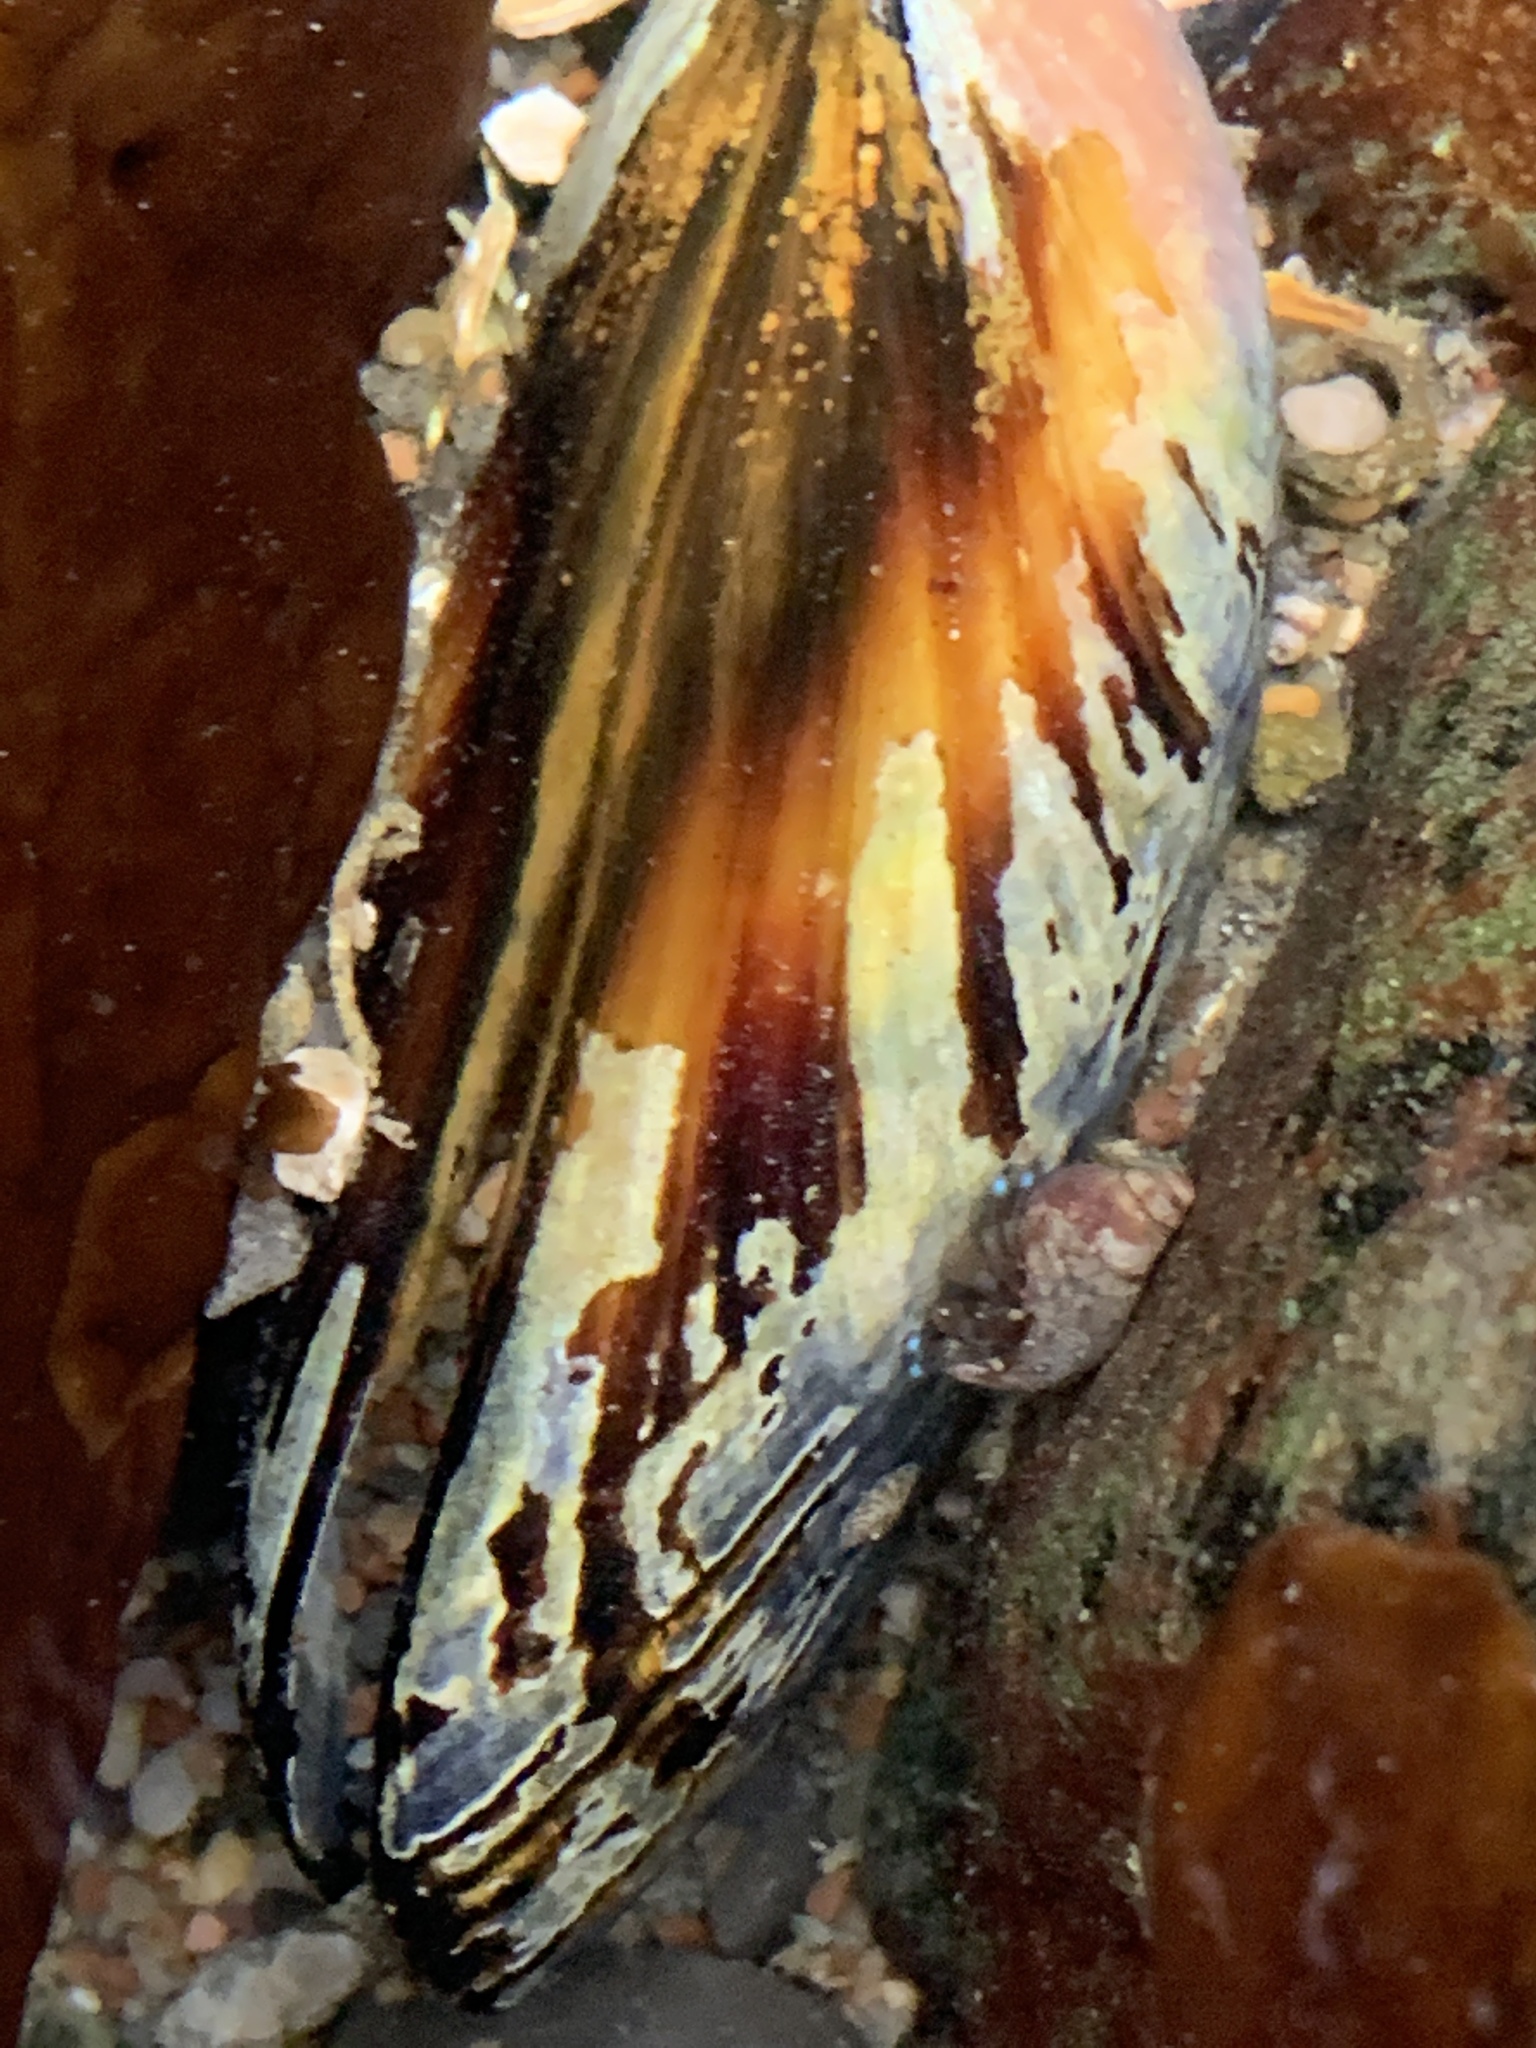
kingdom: Animalia
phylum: Mollusca
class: Bivalvia
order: Mytilida
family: Mytilidae
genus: Mytilus
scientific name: Mytilus californianus
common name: California mussel
